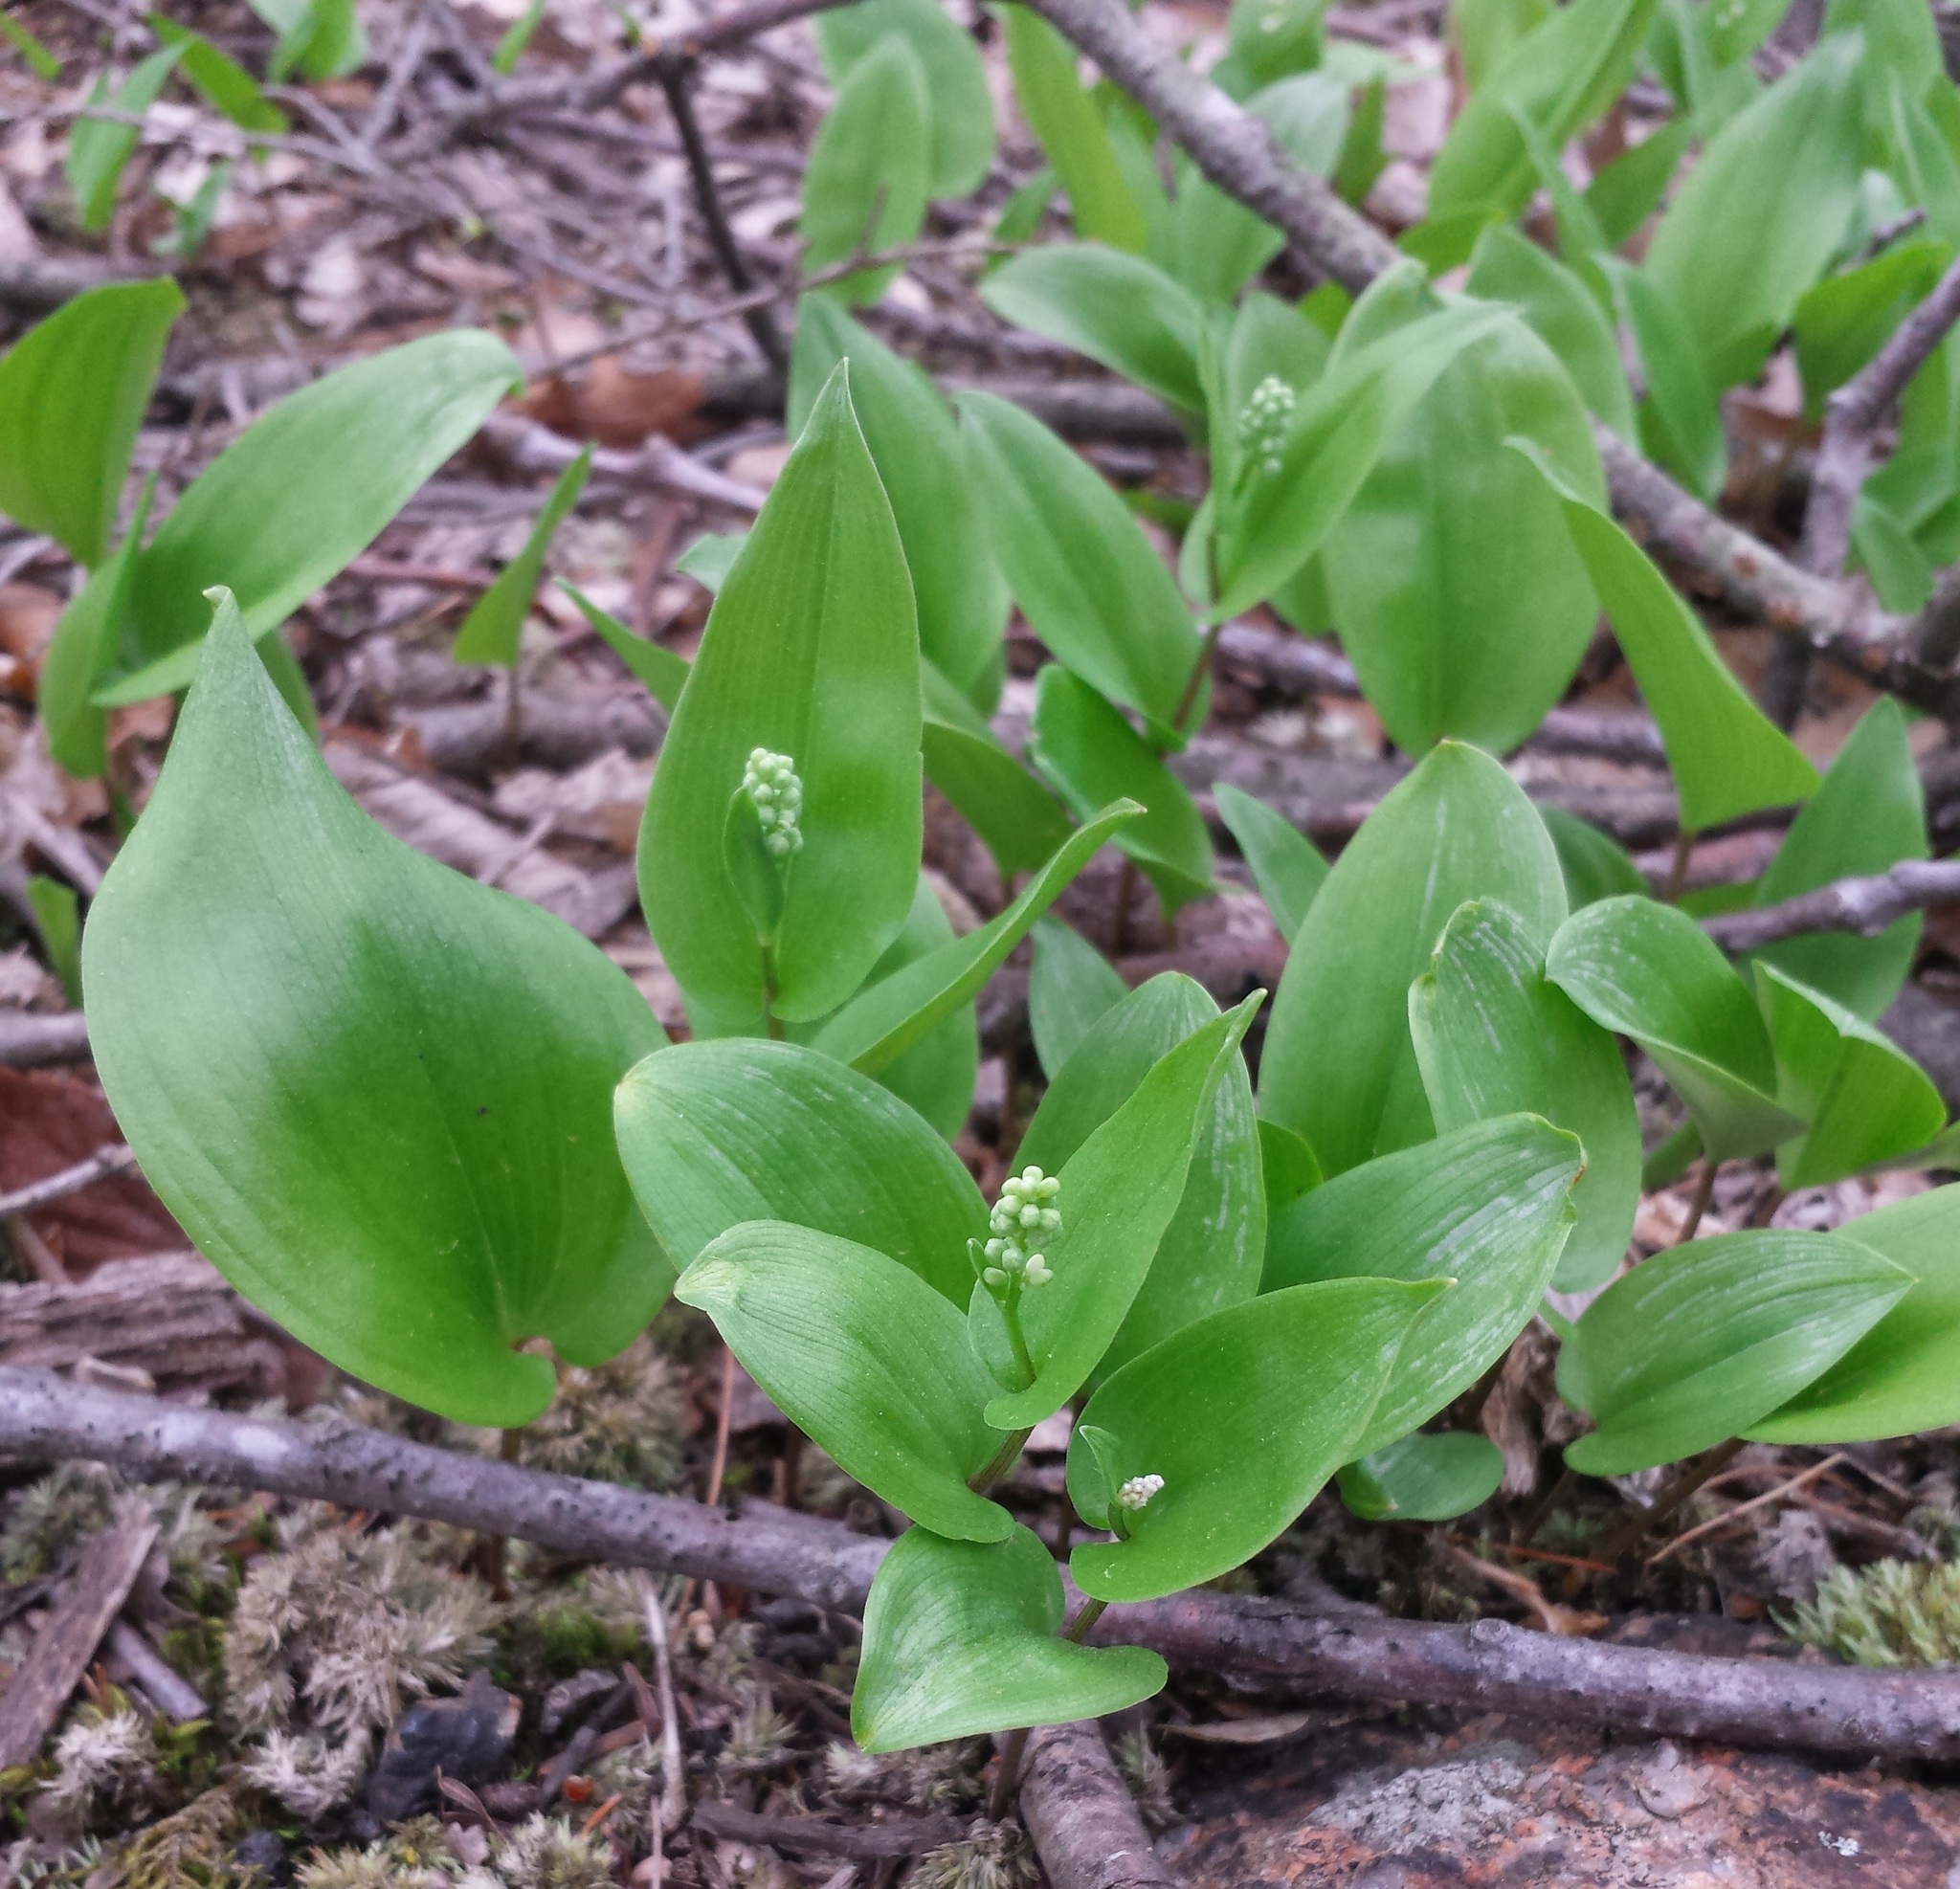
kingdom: Plantae
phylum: Tracheophyta
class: Liliopsida
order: Asparagales
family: Asparagaceae
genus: Maianthemum
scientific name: Maianthemum canadense
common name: False lily-of-the-valley
